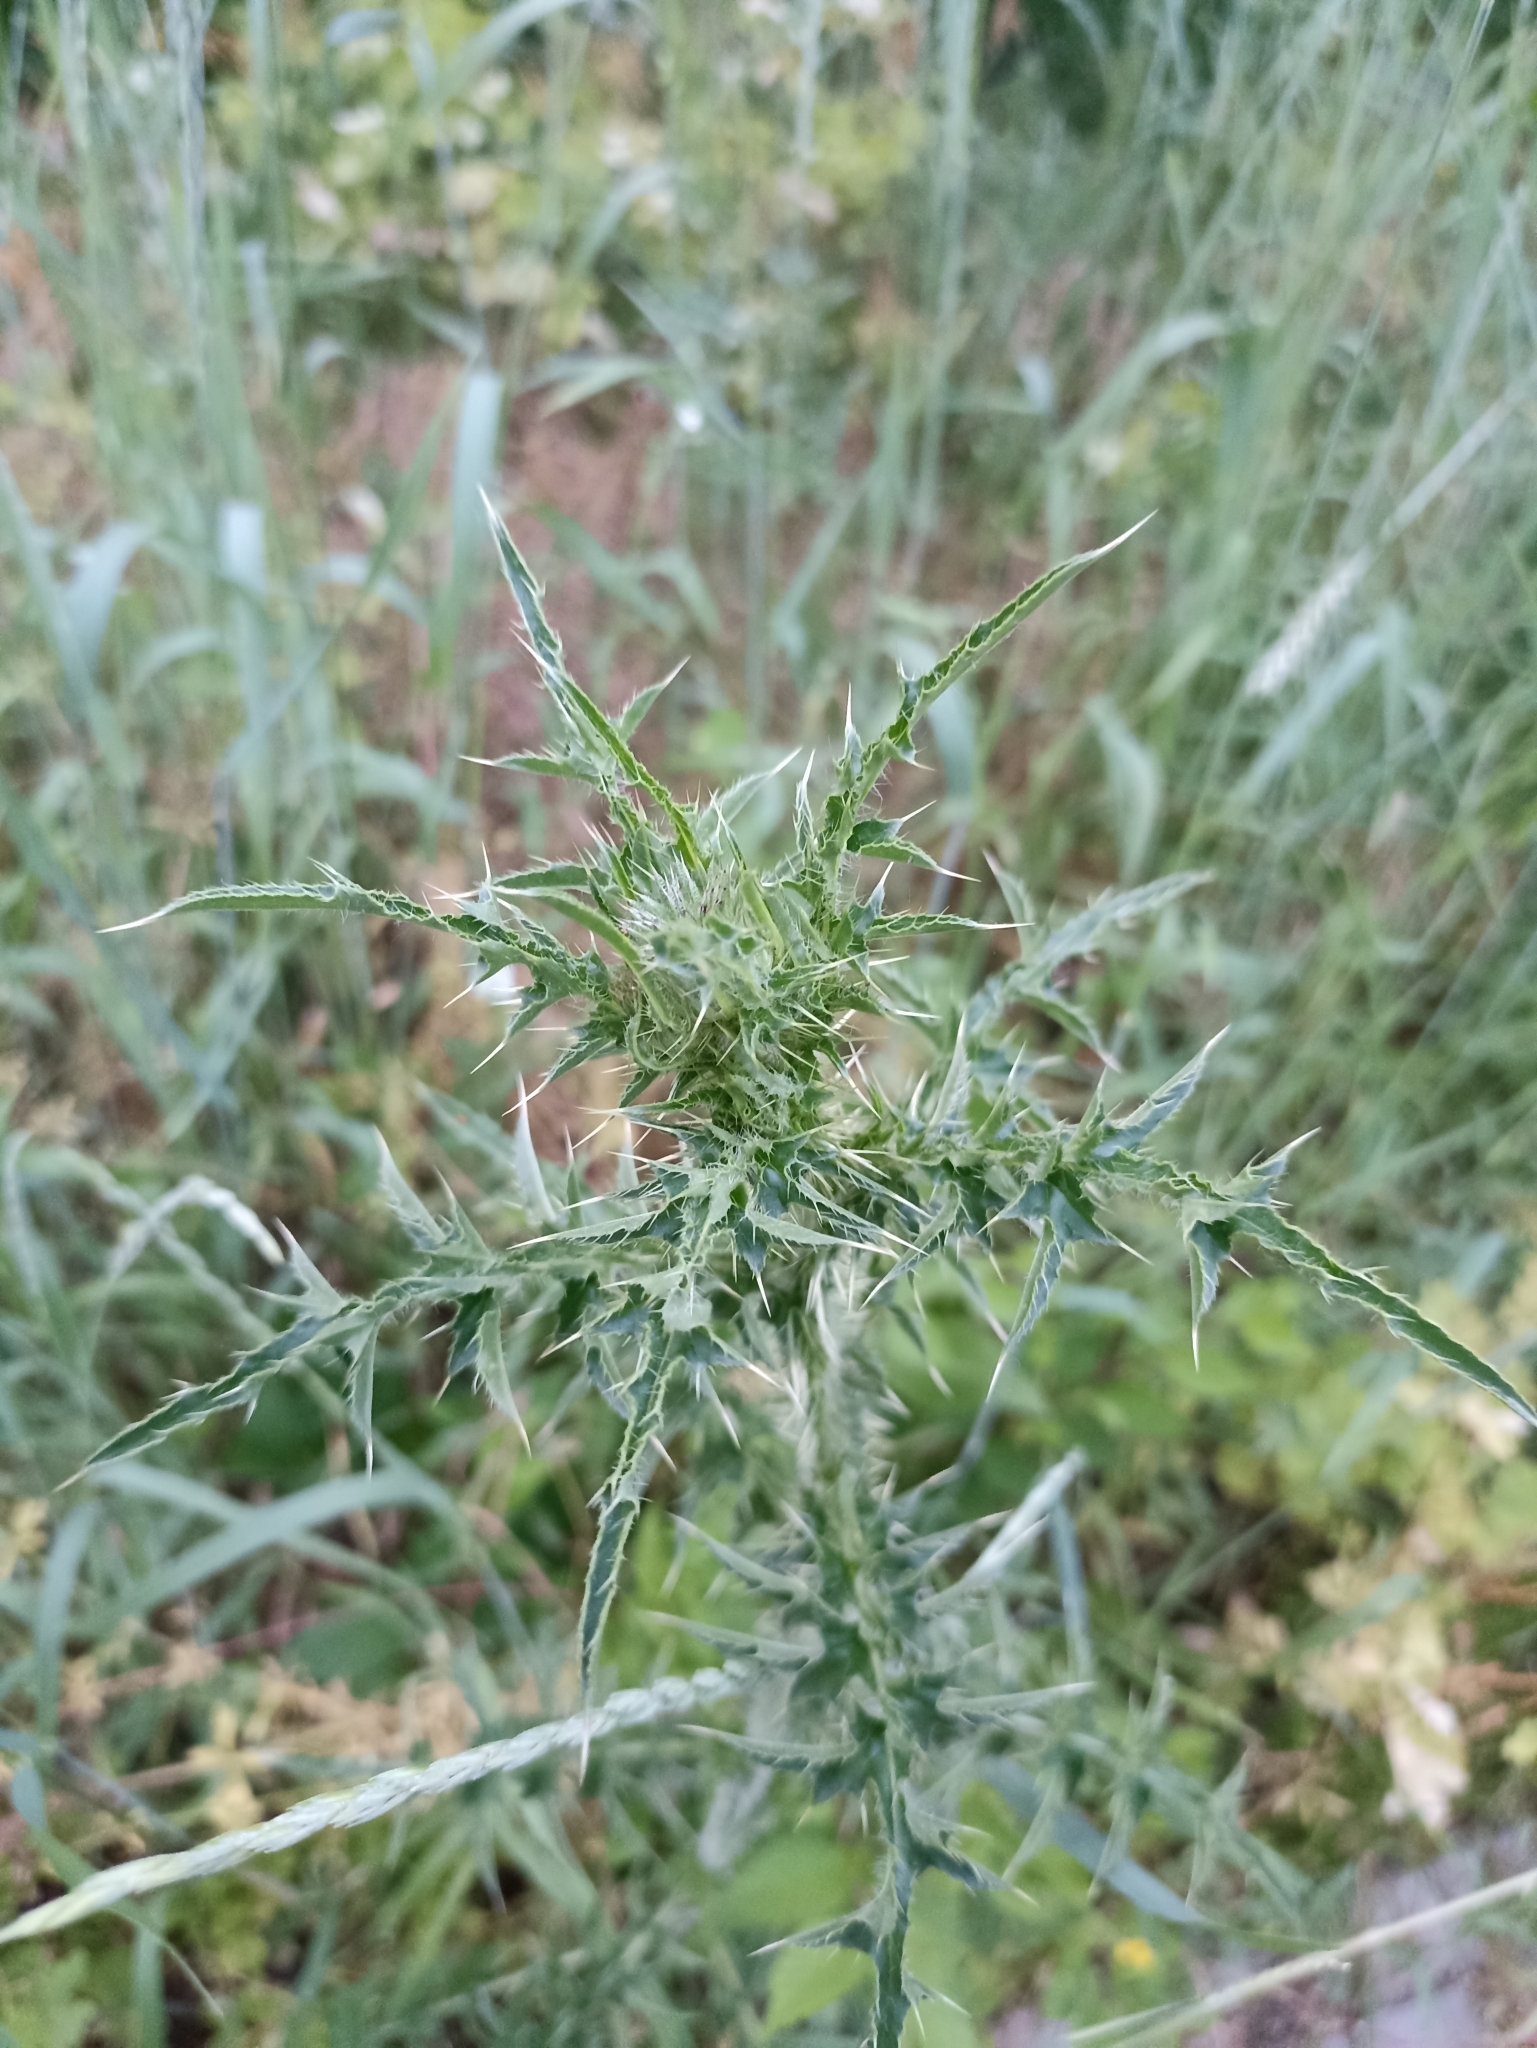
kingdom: Plantae
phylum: Tracheophyta
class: Magnoliopsida
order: Asterales
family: Asteraceae
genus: Carduus
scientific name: Carduus acanthoides
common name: Plumeless thistle
